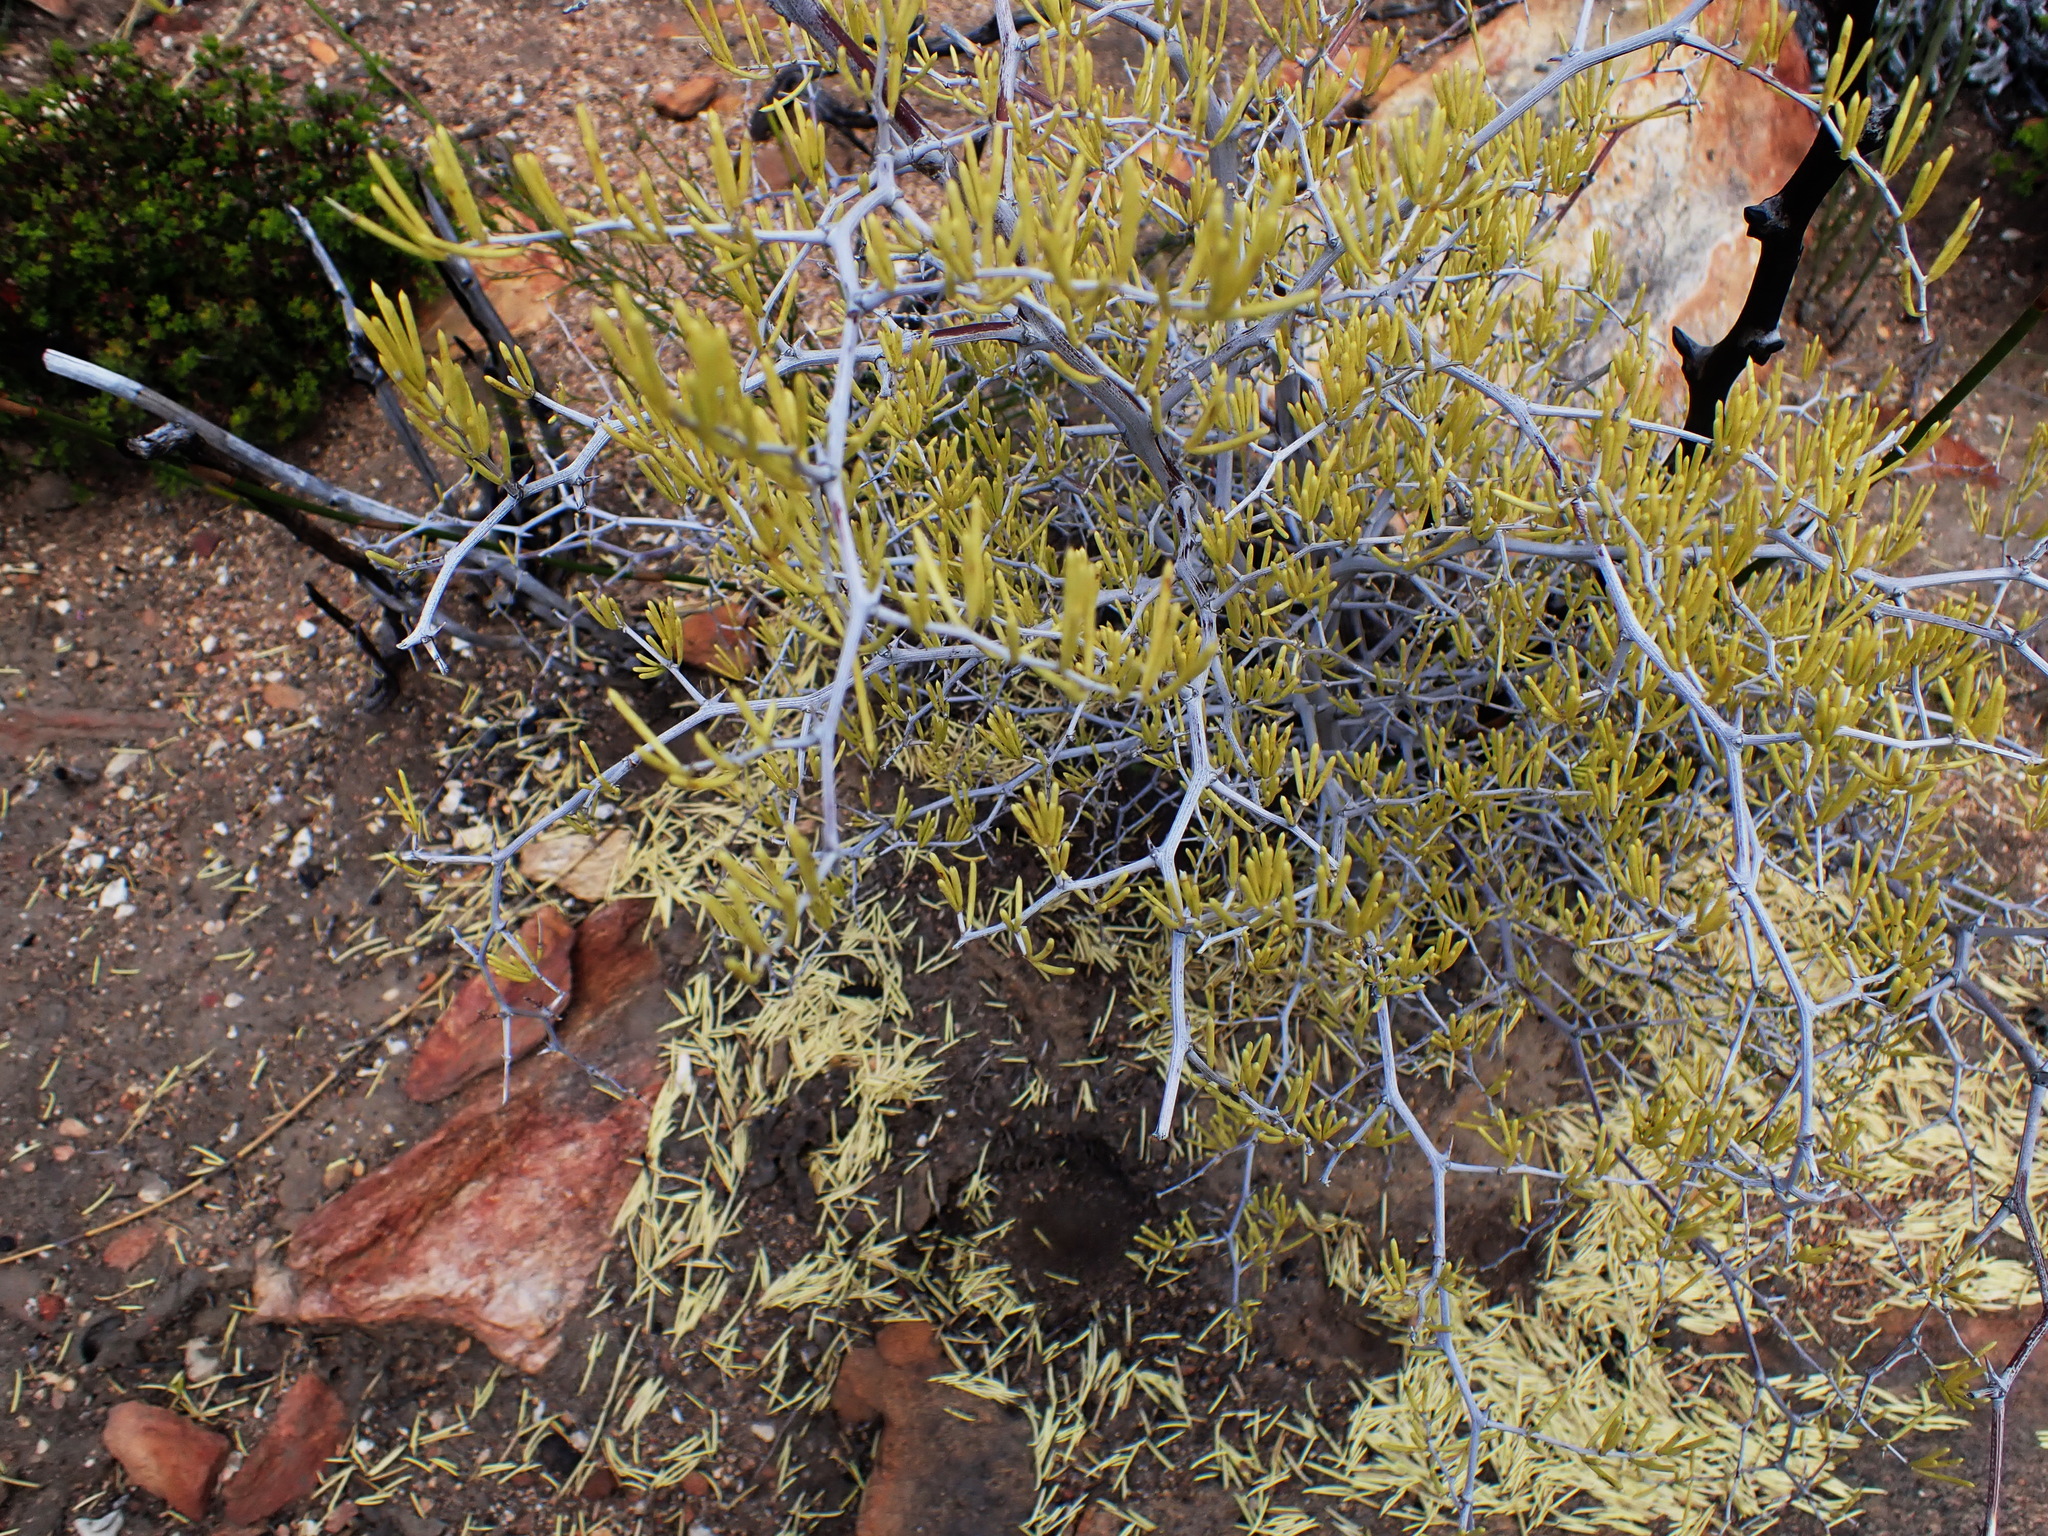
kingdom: Plantae
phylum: Tracheophyta
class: Liliopsida
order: Asparagales
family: Asparagaceae
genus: Asparagus
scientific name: Asparagus lignosus
